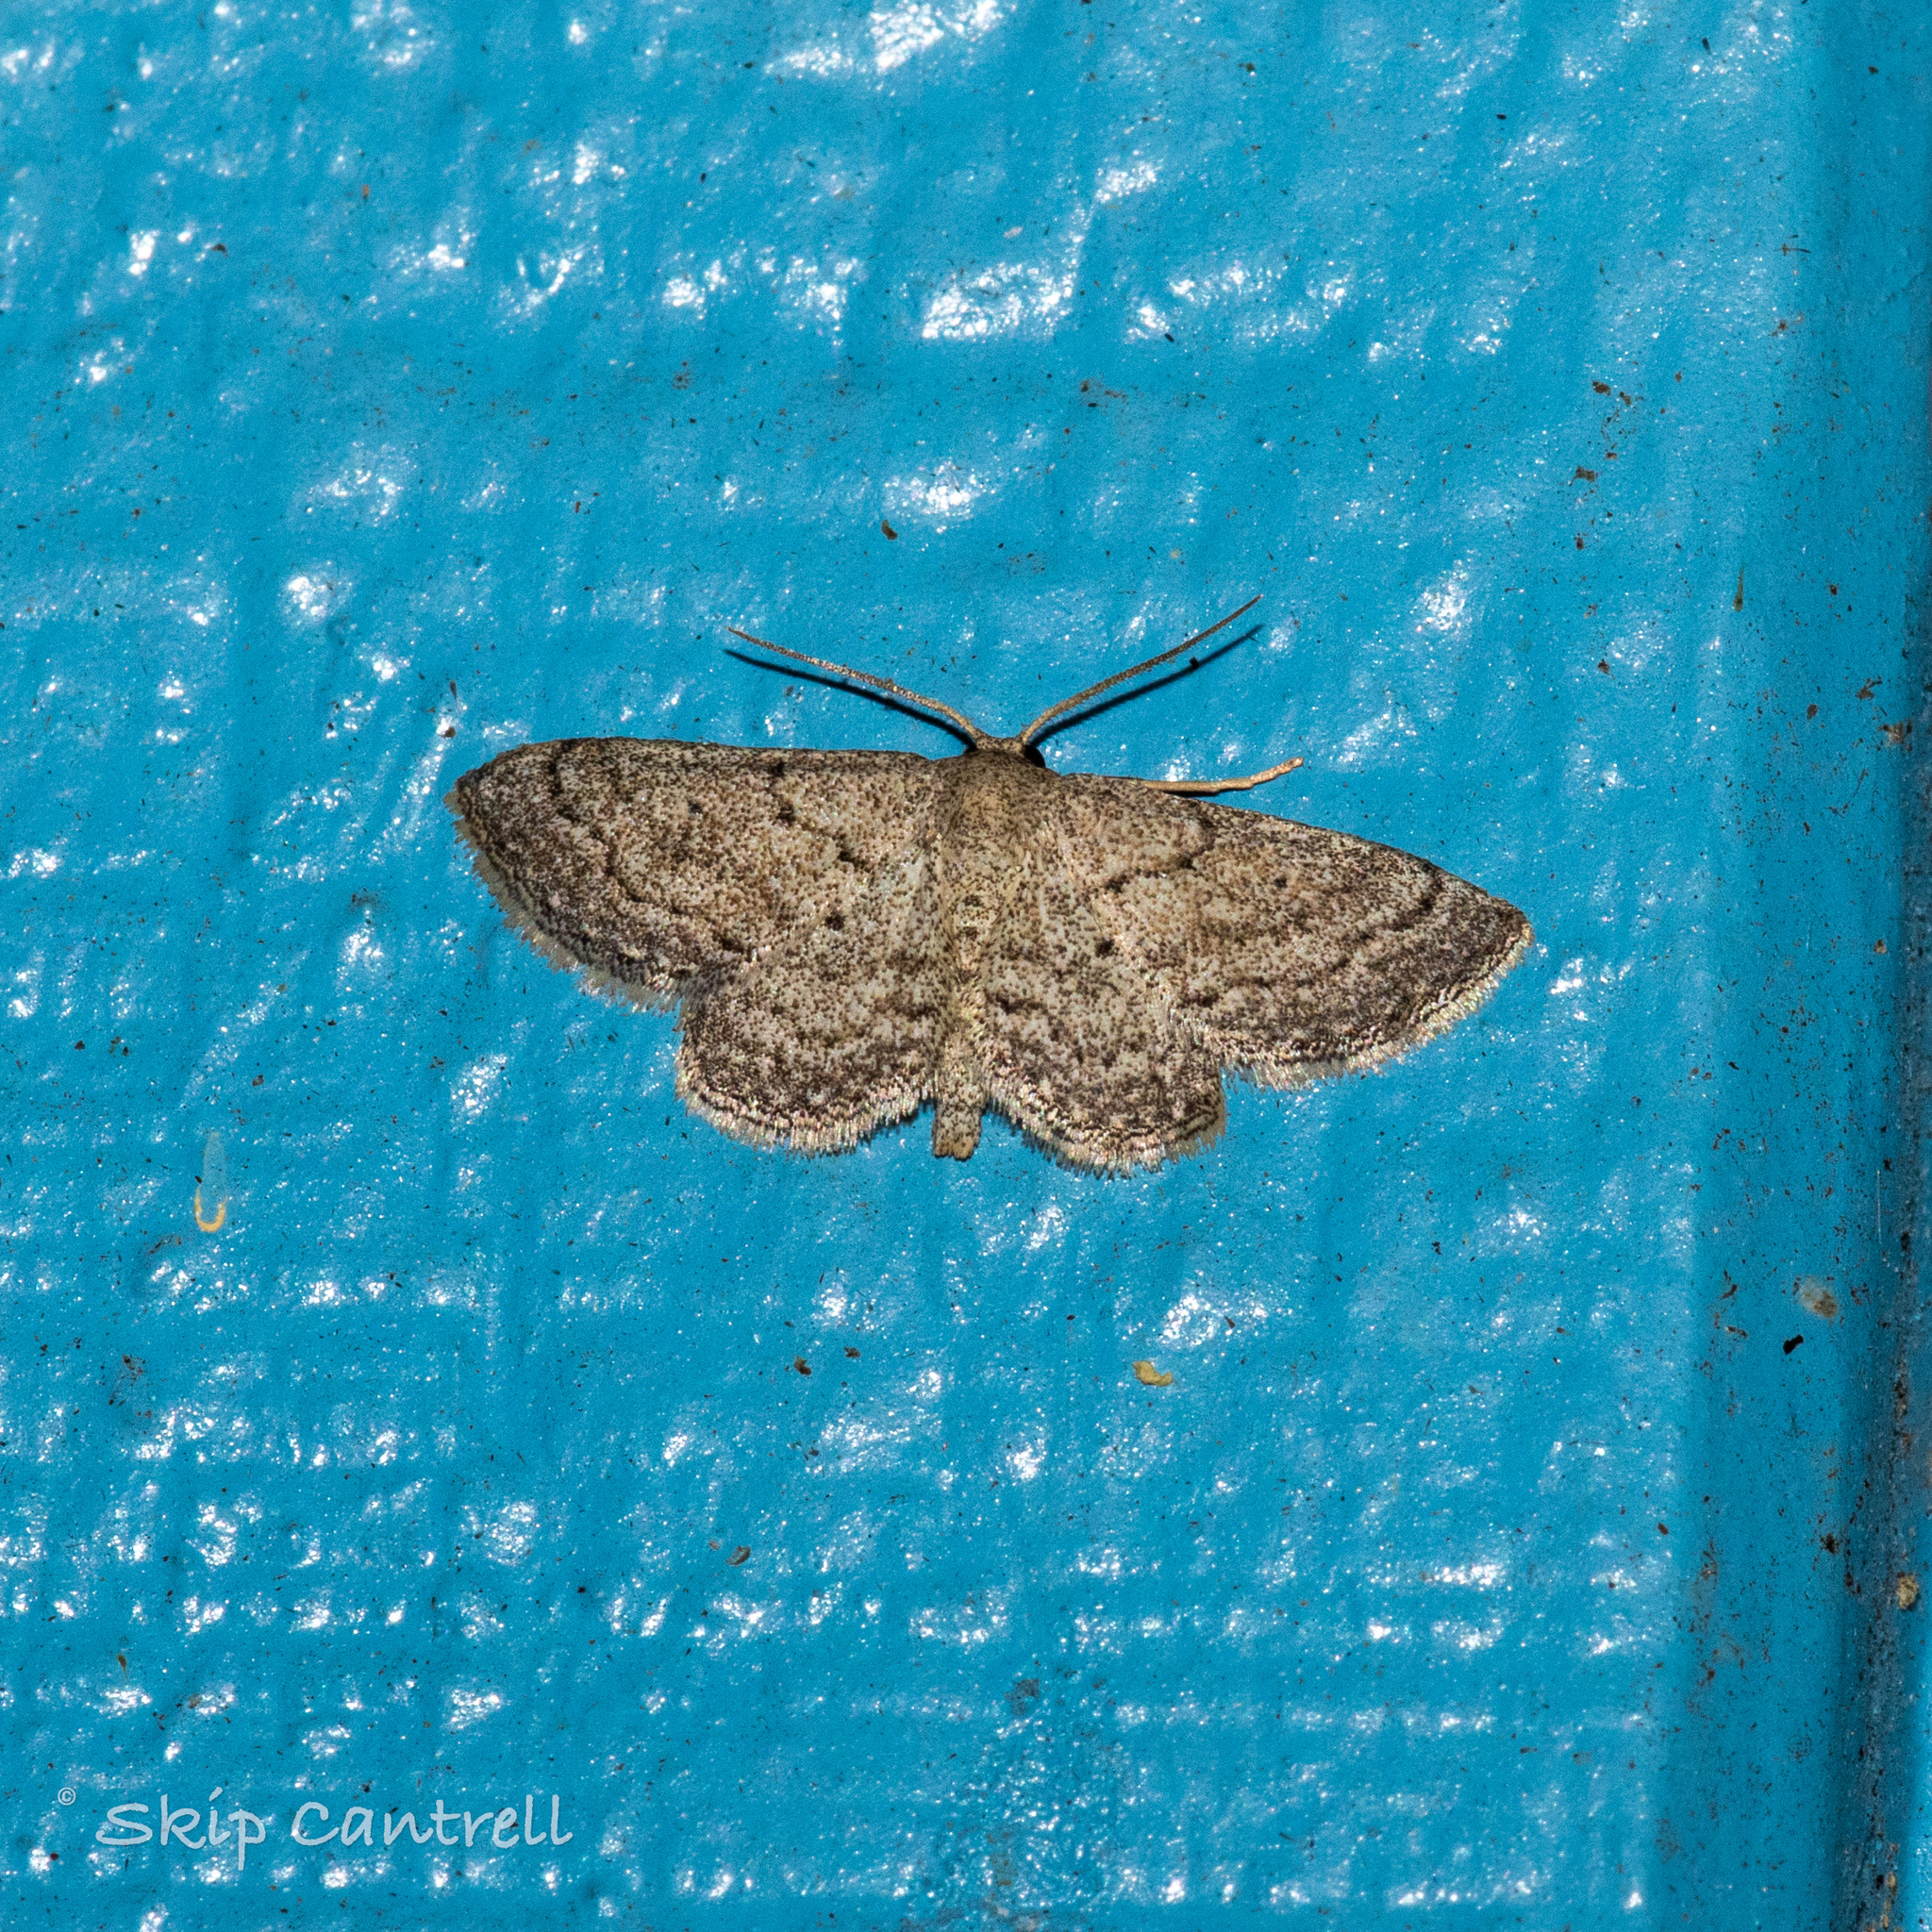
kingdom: Animalia
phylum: Arthropoda
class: Insecta
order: Lepidoptera
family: Geometridae
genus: Lobocleta
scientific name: Lobocleta ossularia
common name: Drab brown wave
